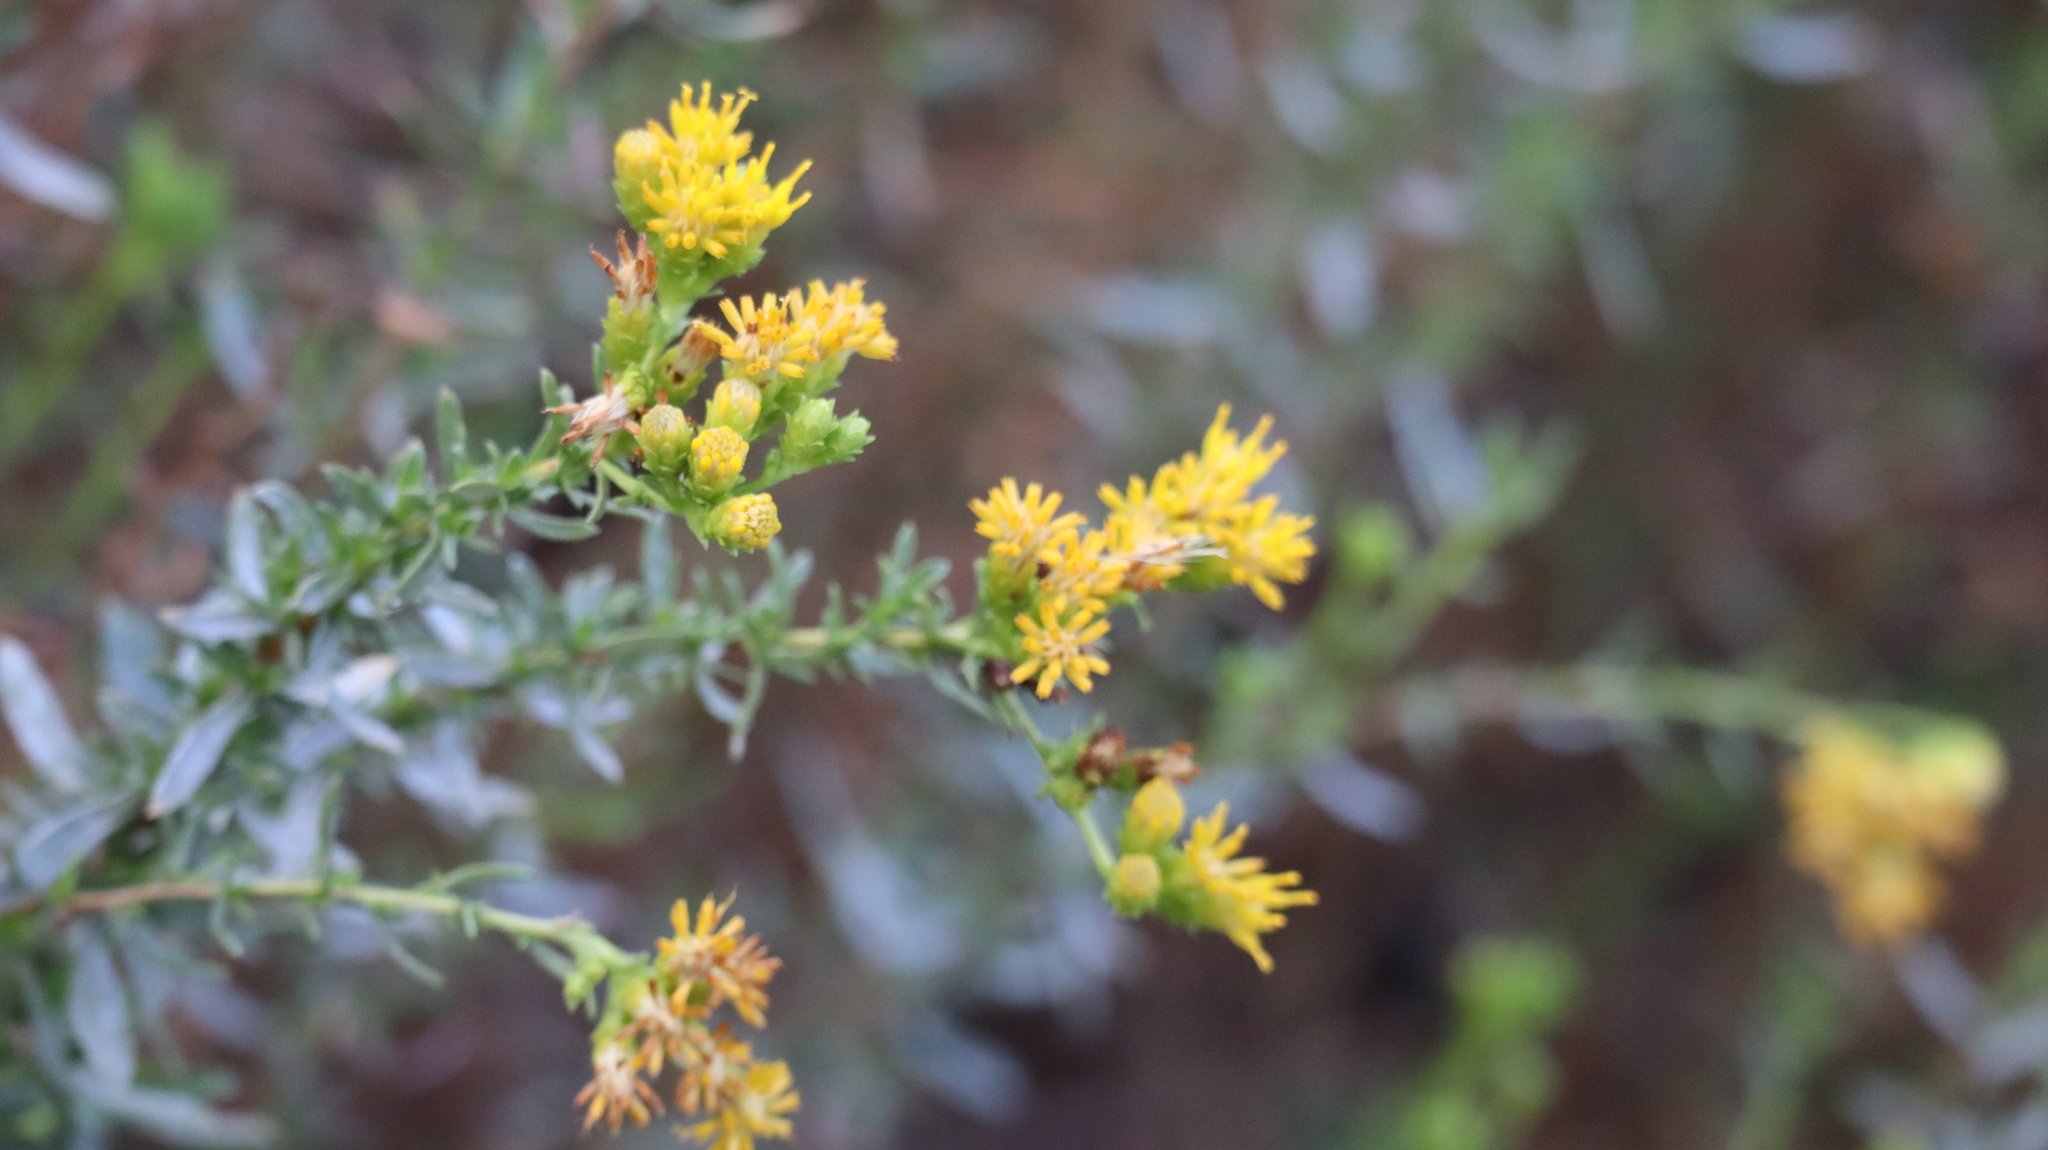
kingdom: Plantae
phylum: Tracheophyta
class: Magnoliopsida
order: Asterales
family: Asteraceae
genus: Isocoma
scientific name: Isocoma menziesii
